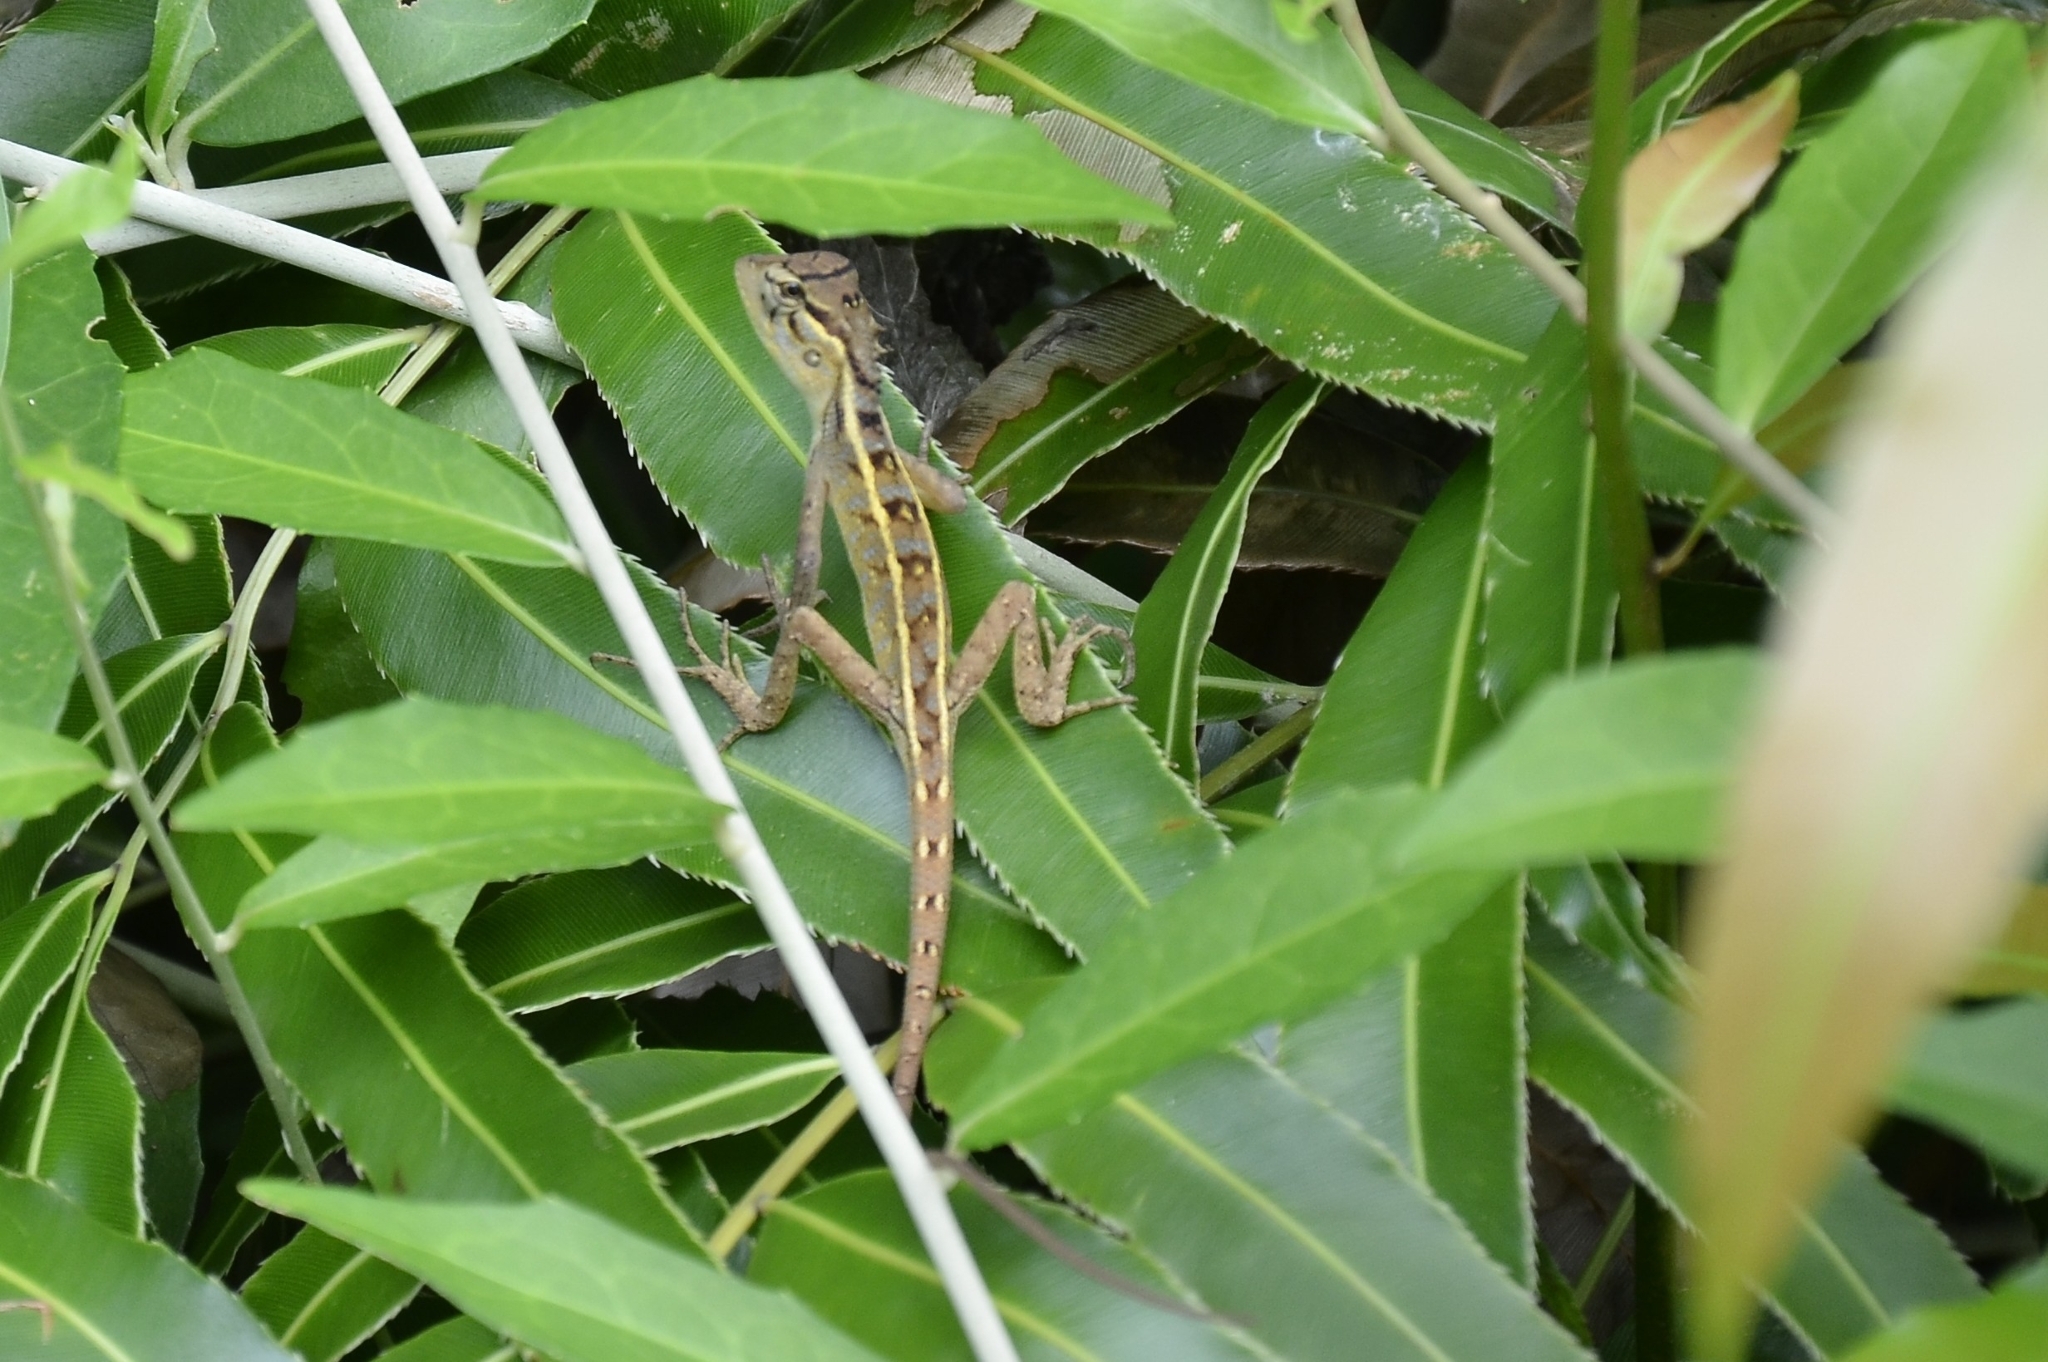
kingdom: Animalia
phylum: Chordata
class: Squamata
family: Agamidae
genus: Calotes
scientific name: Calotes versicolor
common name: Oriental garden lizard
